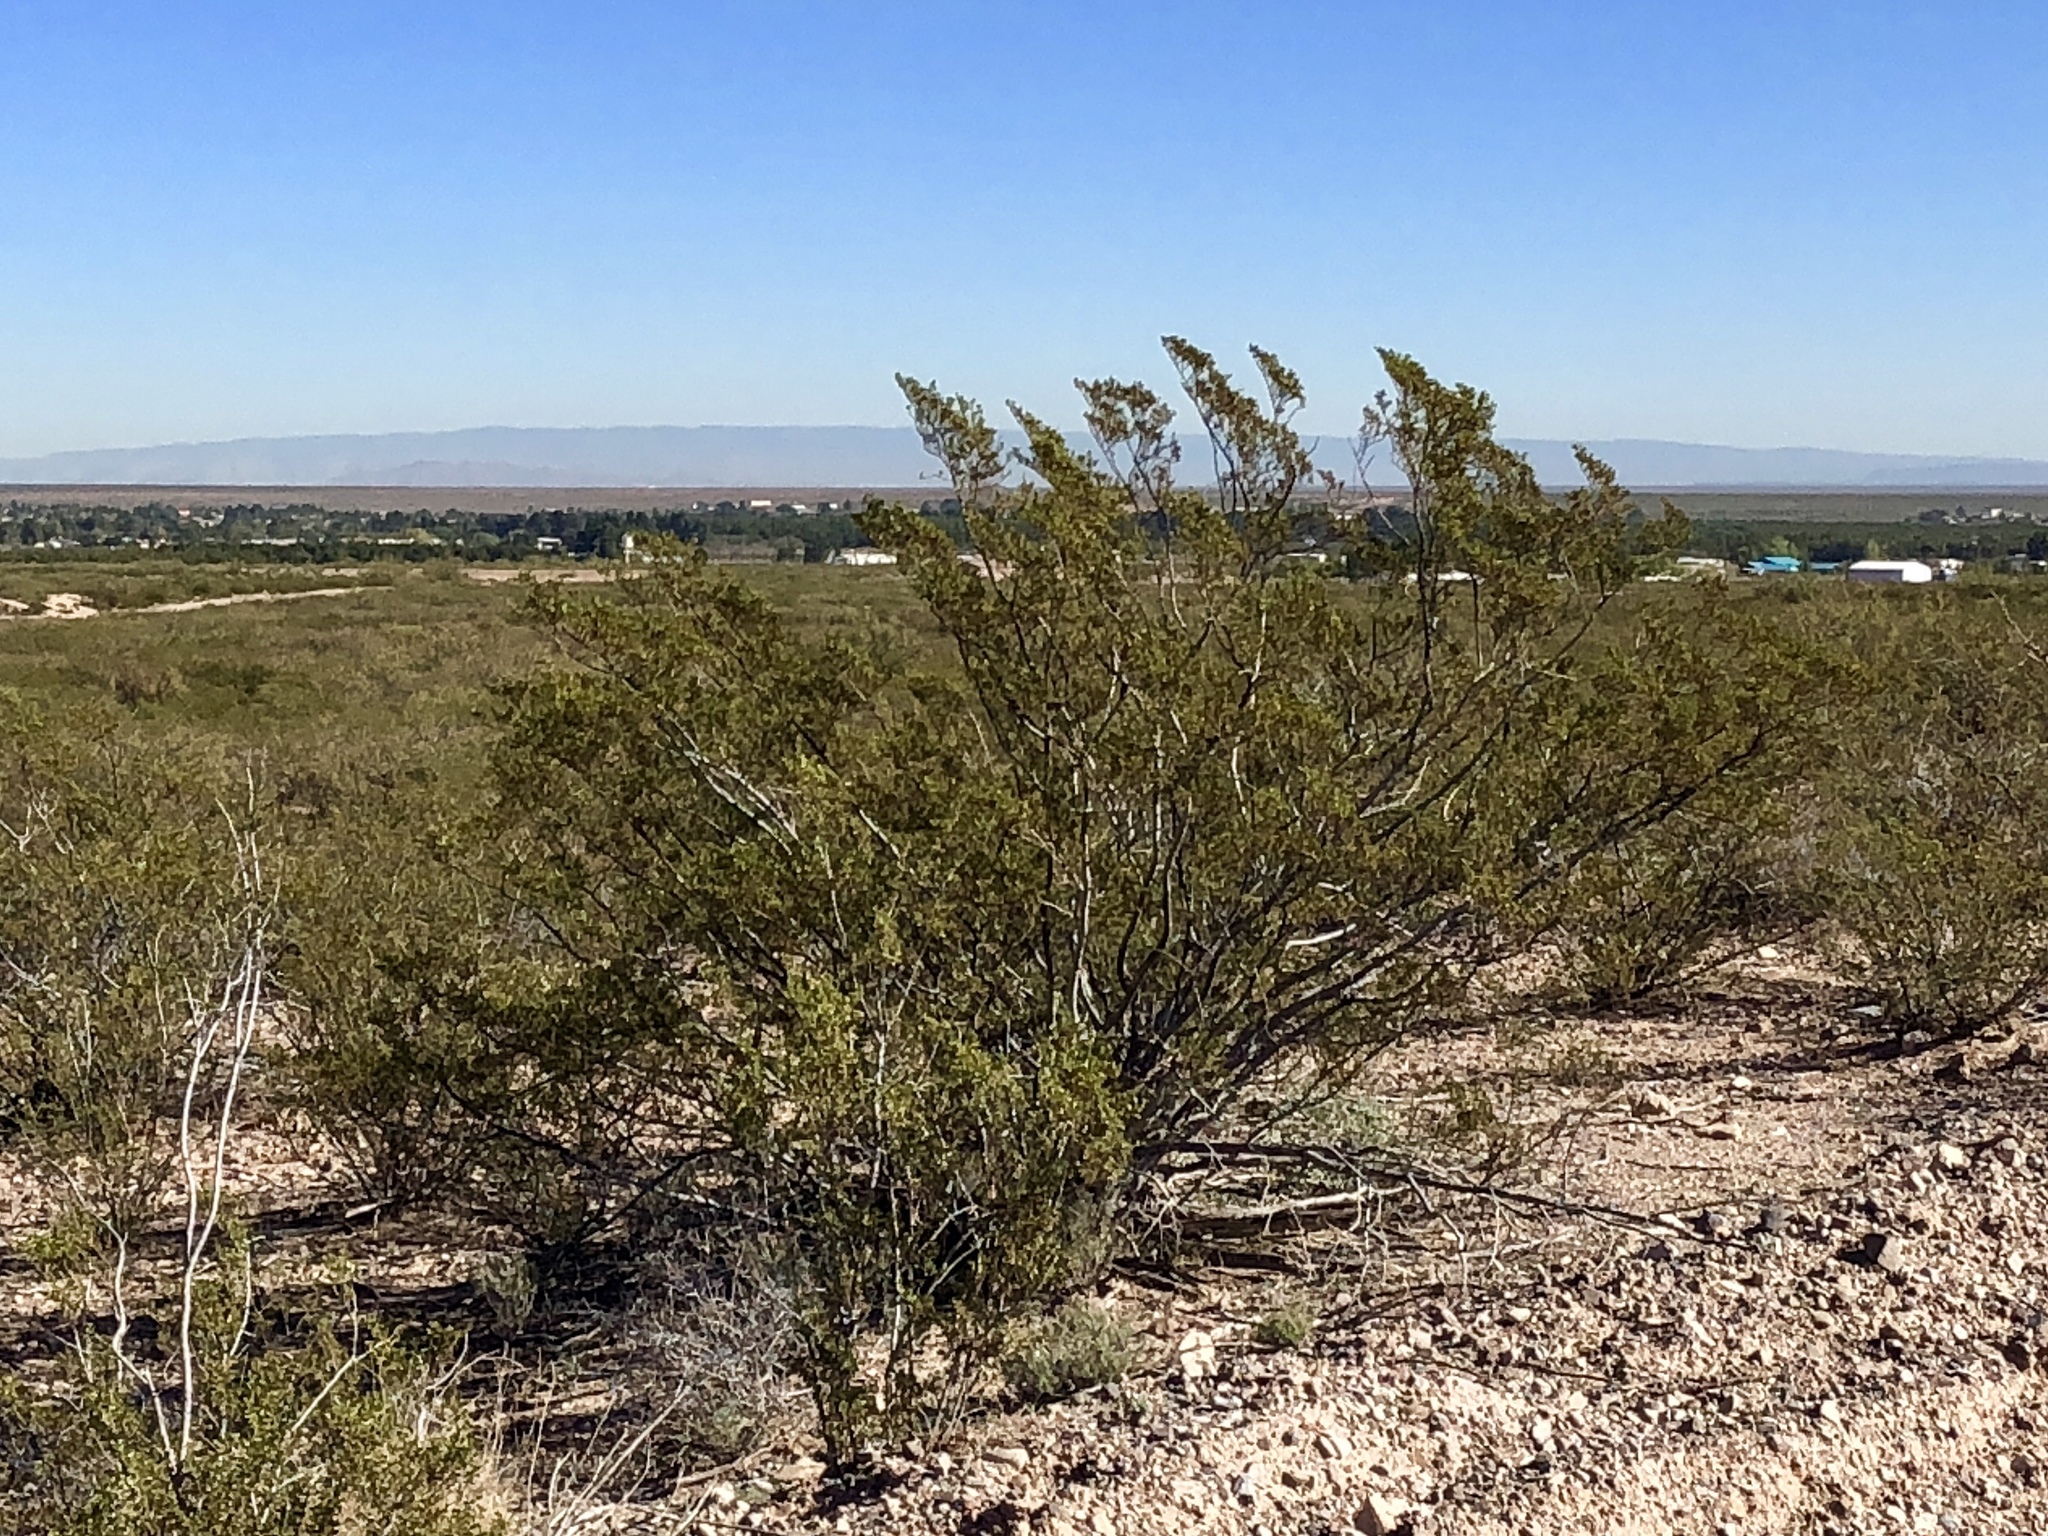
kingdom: Plantae
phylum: Tracheophyta
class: Magnoliopsida
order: Zygophyllales
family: Zygophyllaceae
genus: Larrea
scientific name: Larrea tridentata
